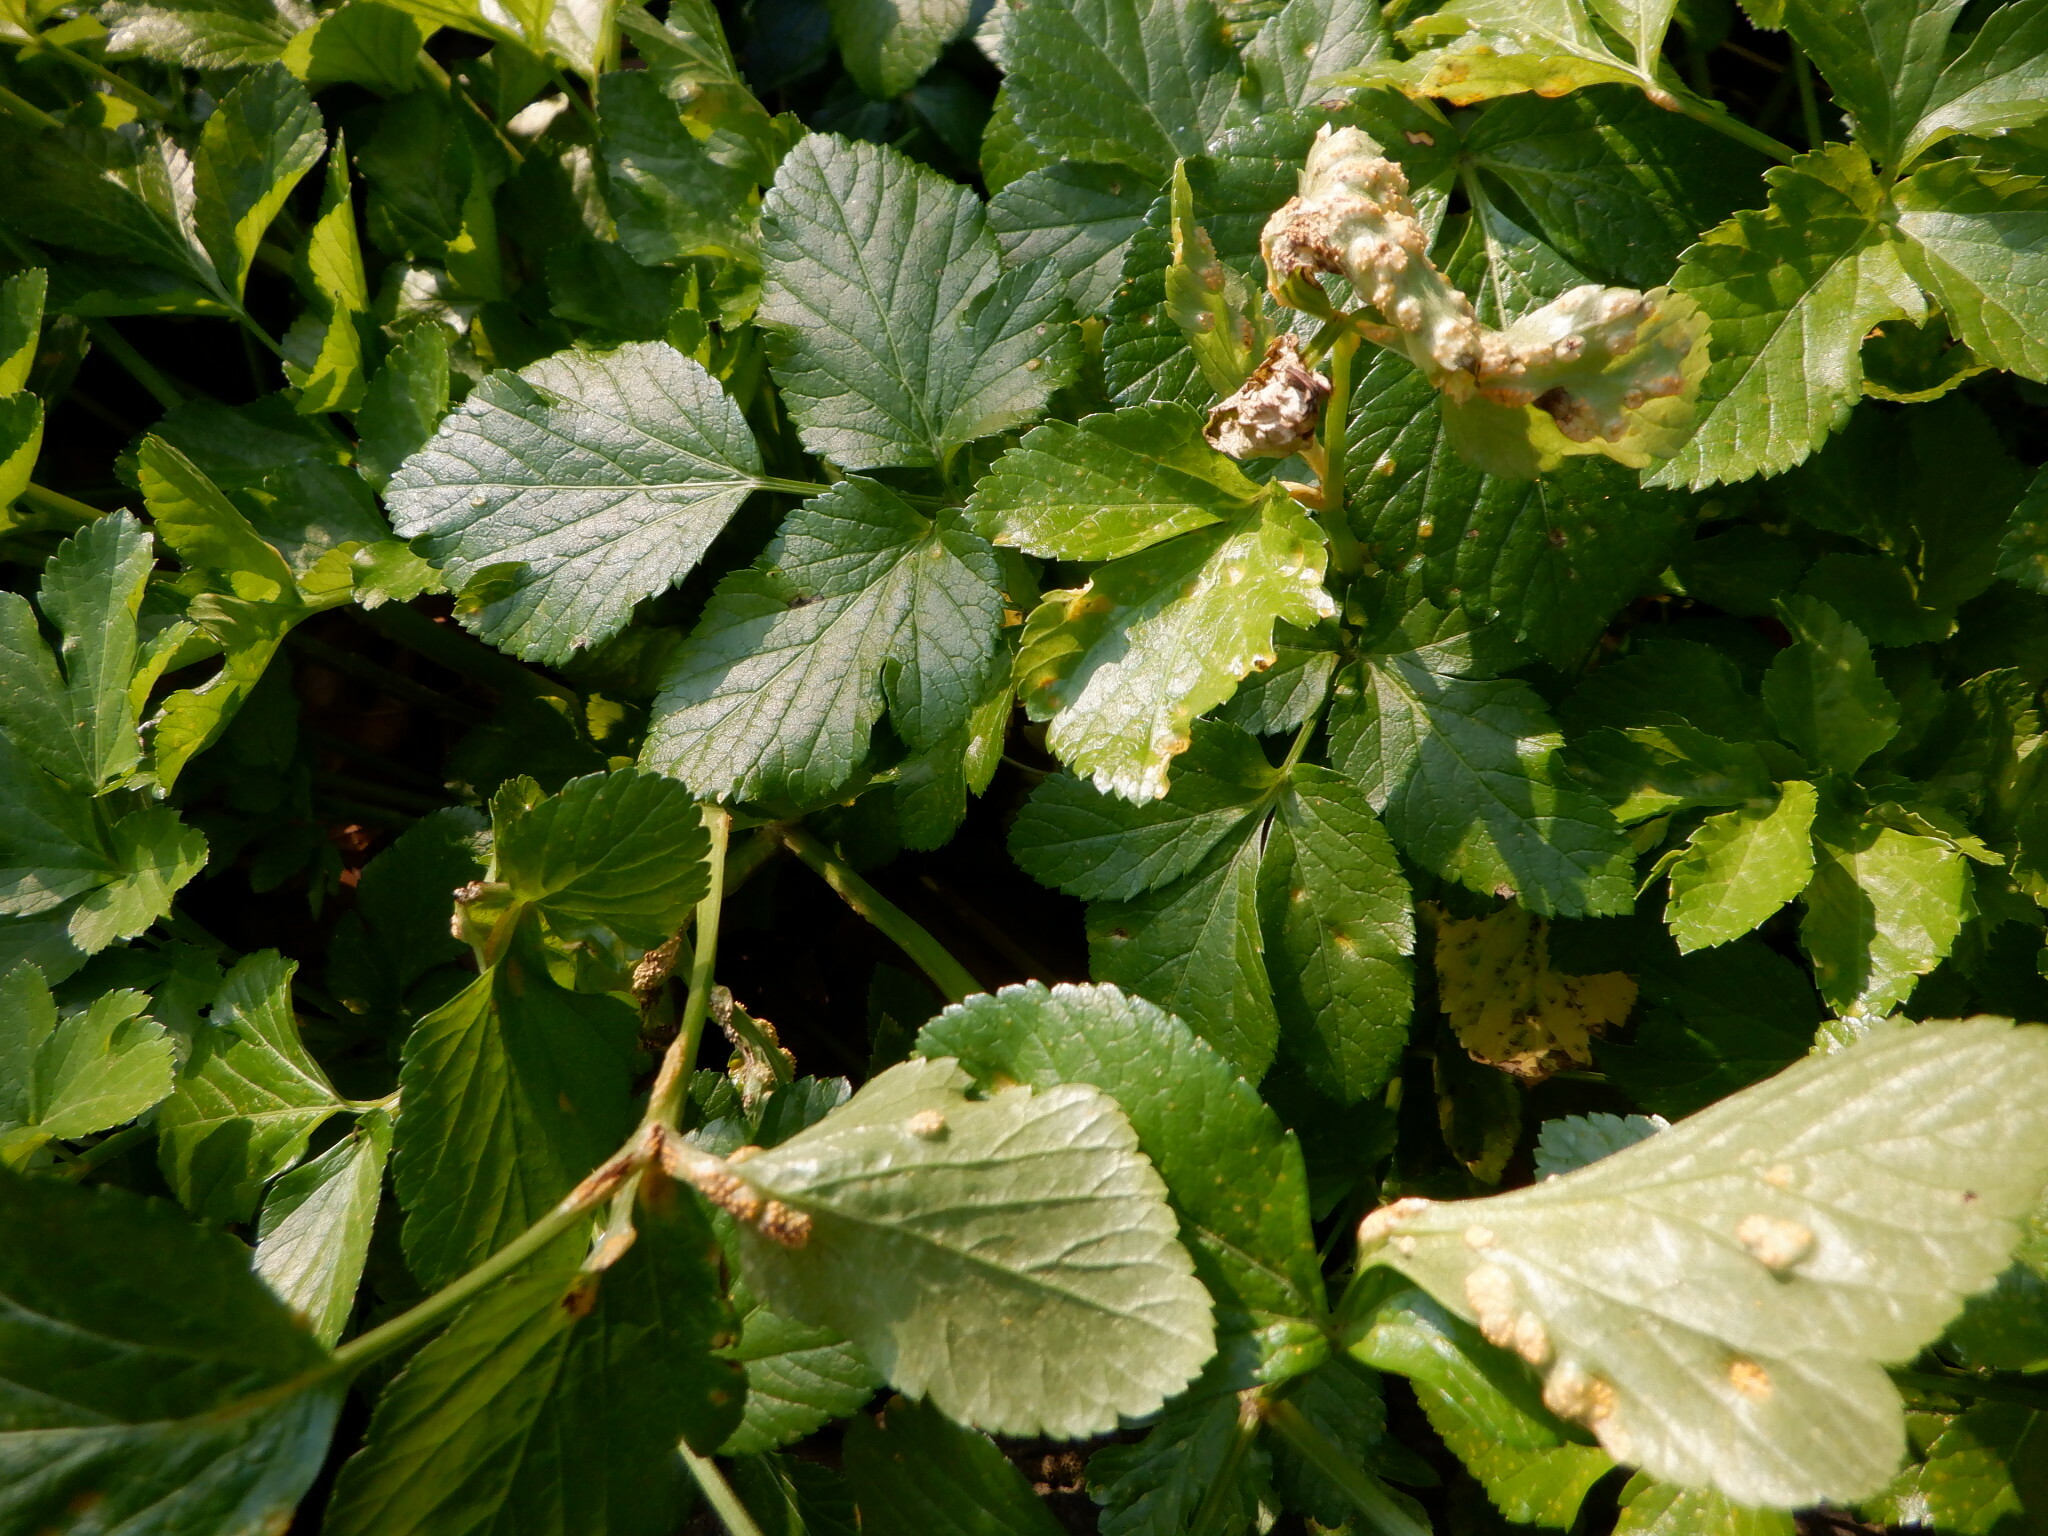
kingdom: Fungi
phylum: Basidiomycota
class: Pucciniomycetes
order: Pucciniales
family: Pucciniaceae
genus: Puccinia
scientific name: Puccinia smyrnii
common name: Alexanders rust
